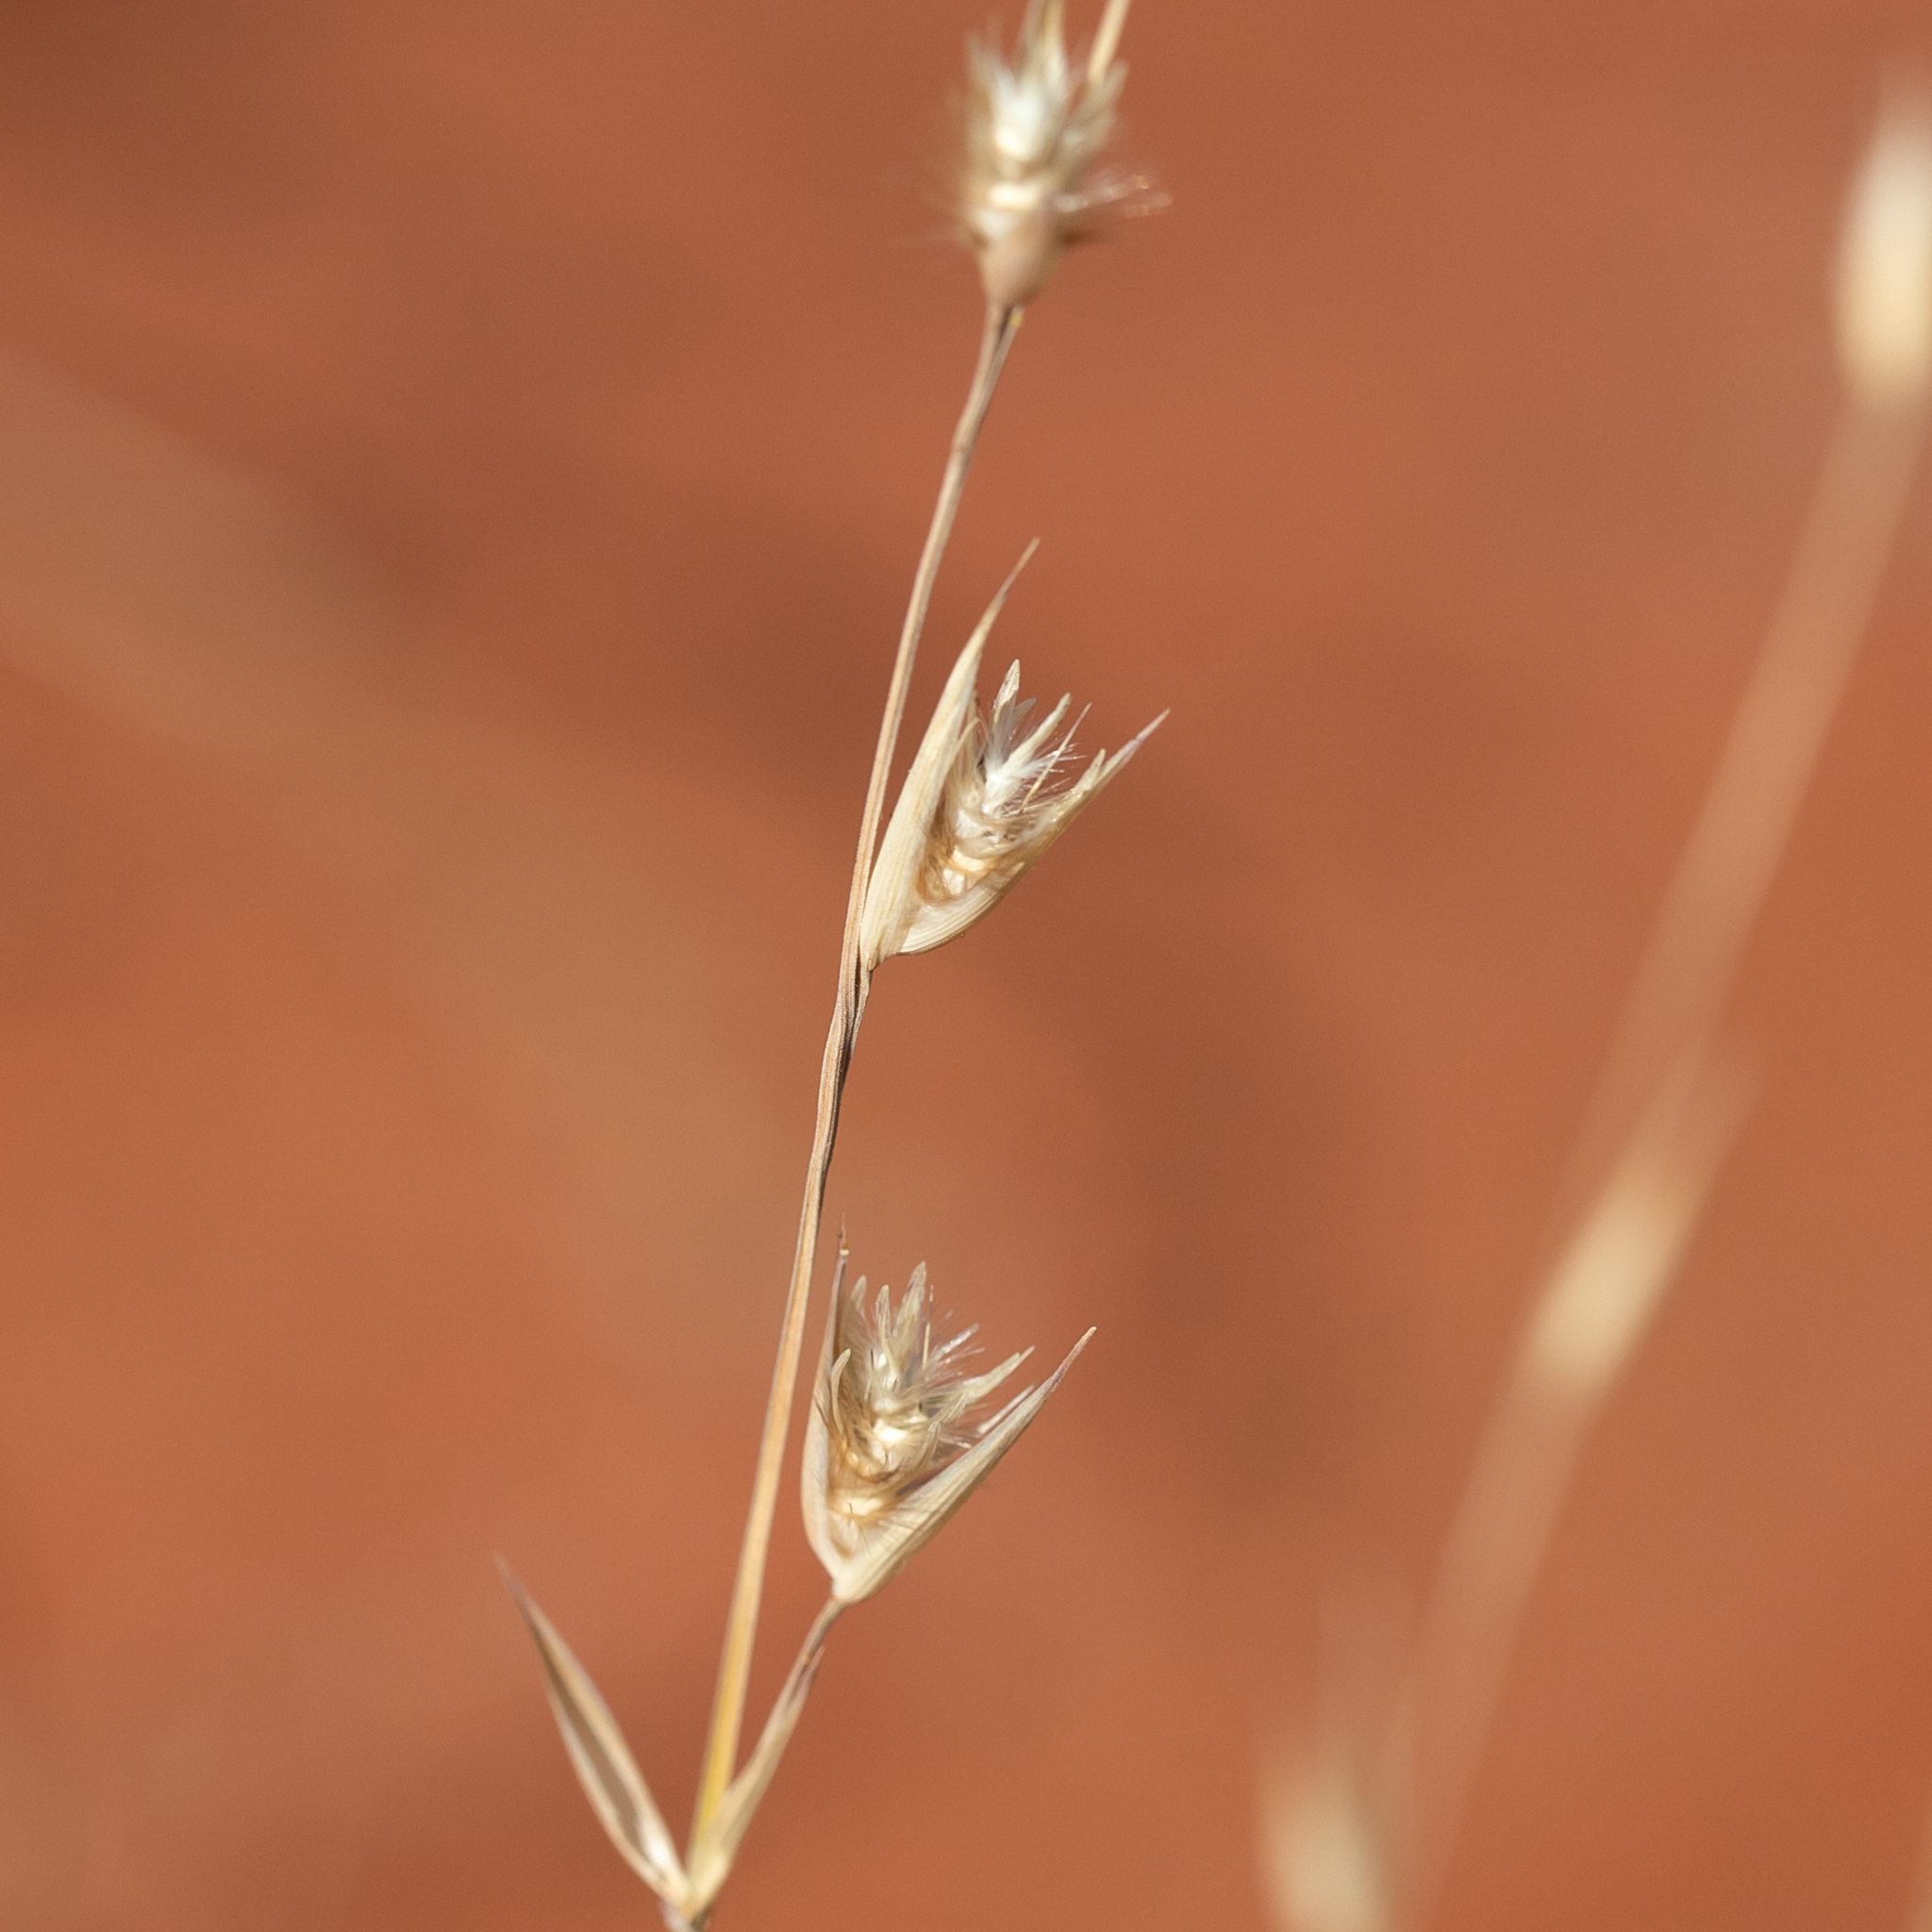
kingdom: Plantae
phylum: Tracheophyta
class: Liliopsida
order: Poales
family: Poaceae
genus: Monachather
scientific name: Monachather paradoxus
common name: Bandicoot grass
